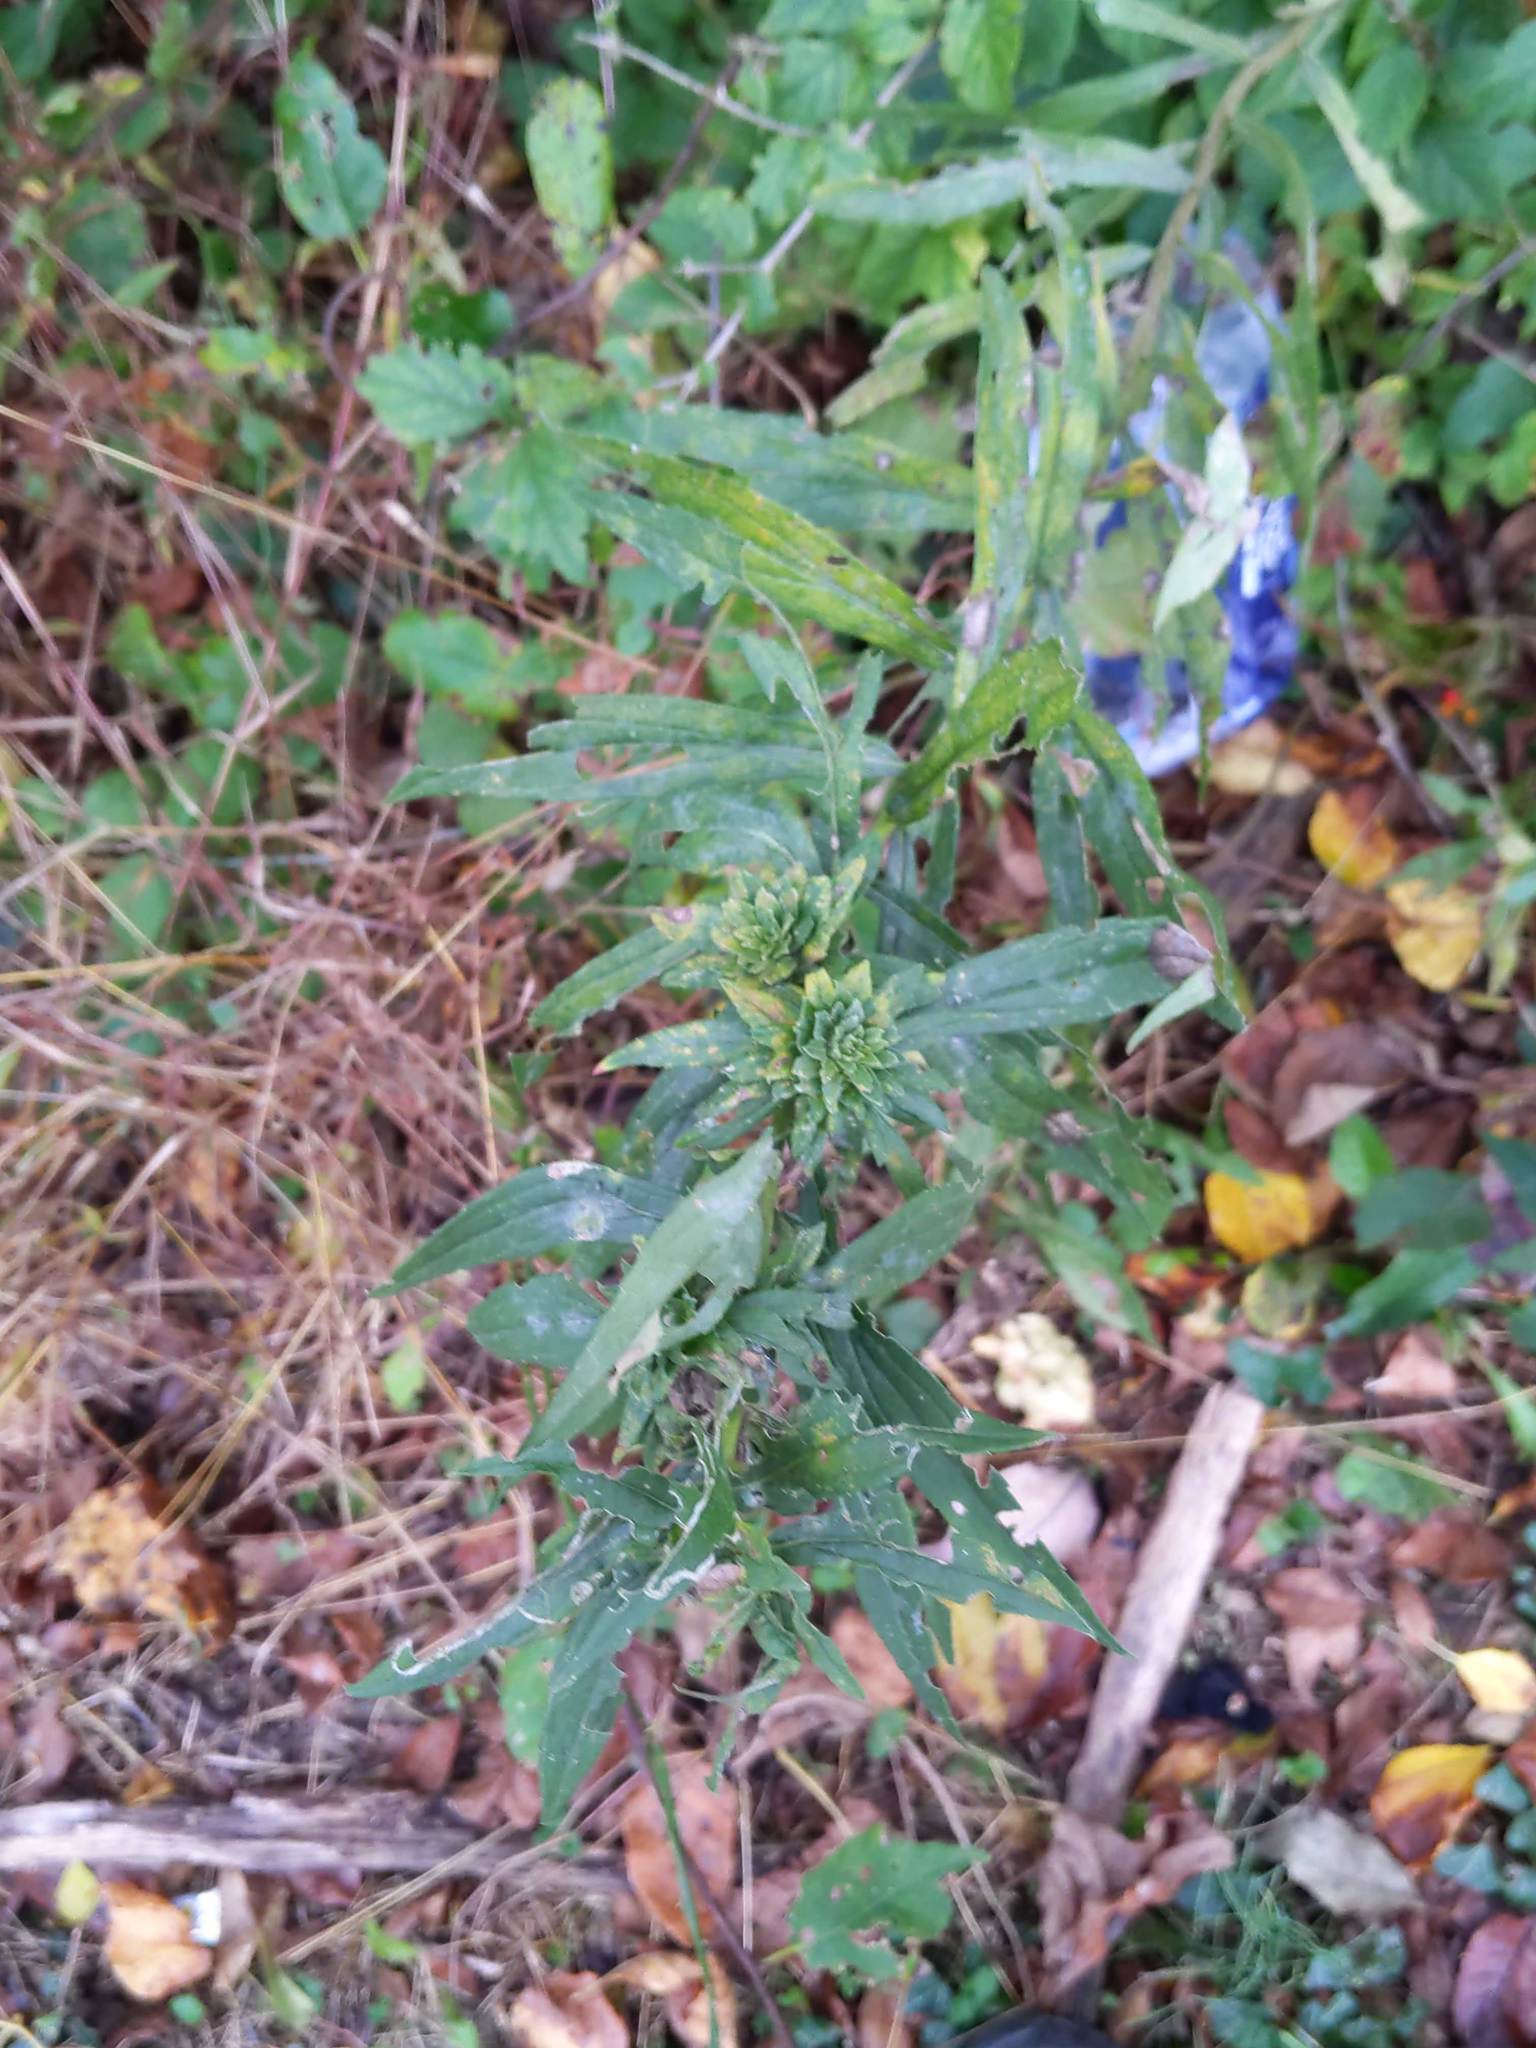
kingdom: Animalia
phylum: Arthropoda
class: Insecta
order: Diptera
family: Tephritidae
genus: Procecidochares
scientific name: Procecidochares atra
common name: Goldenrod brussels sprout gall fly
